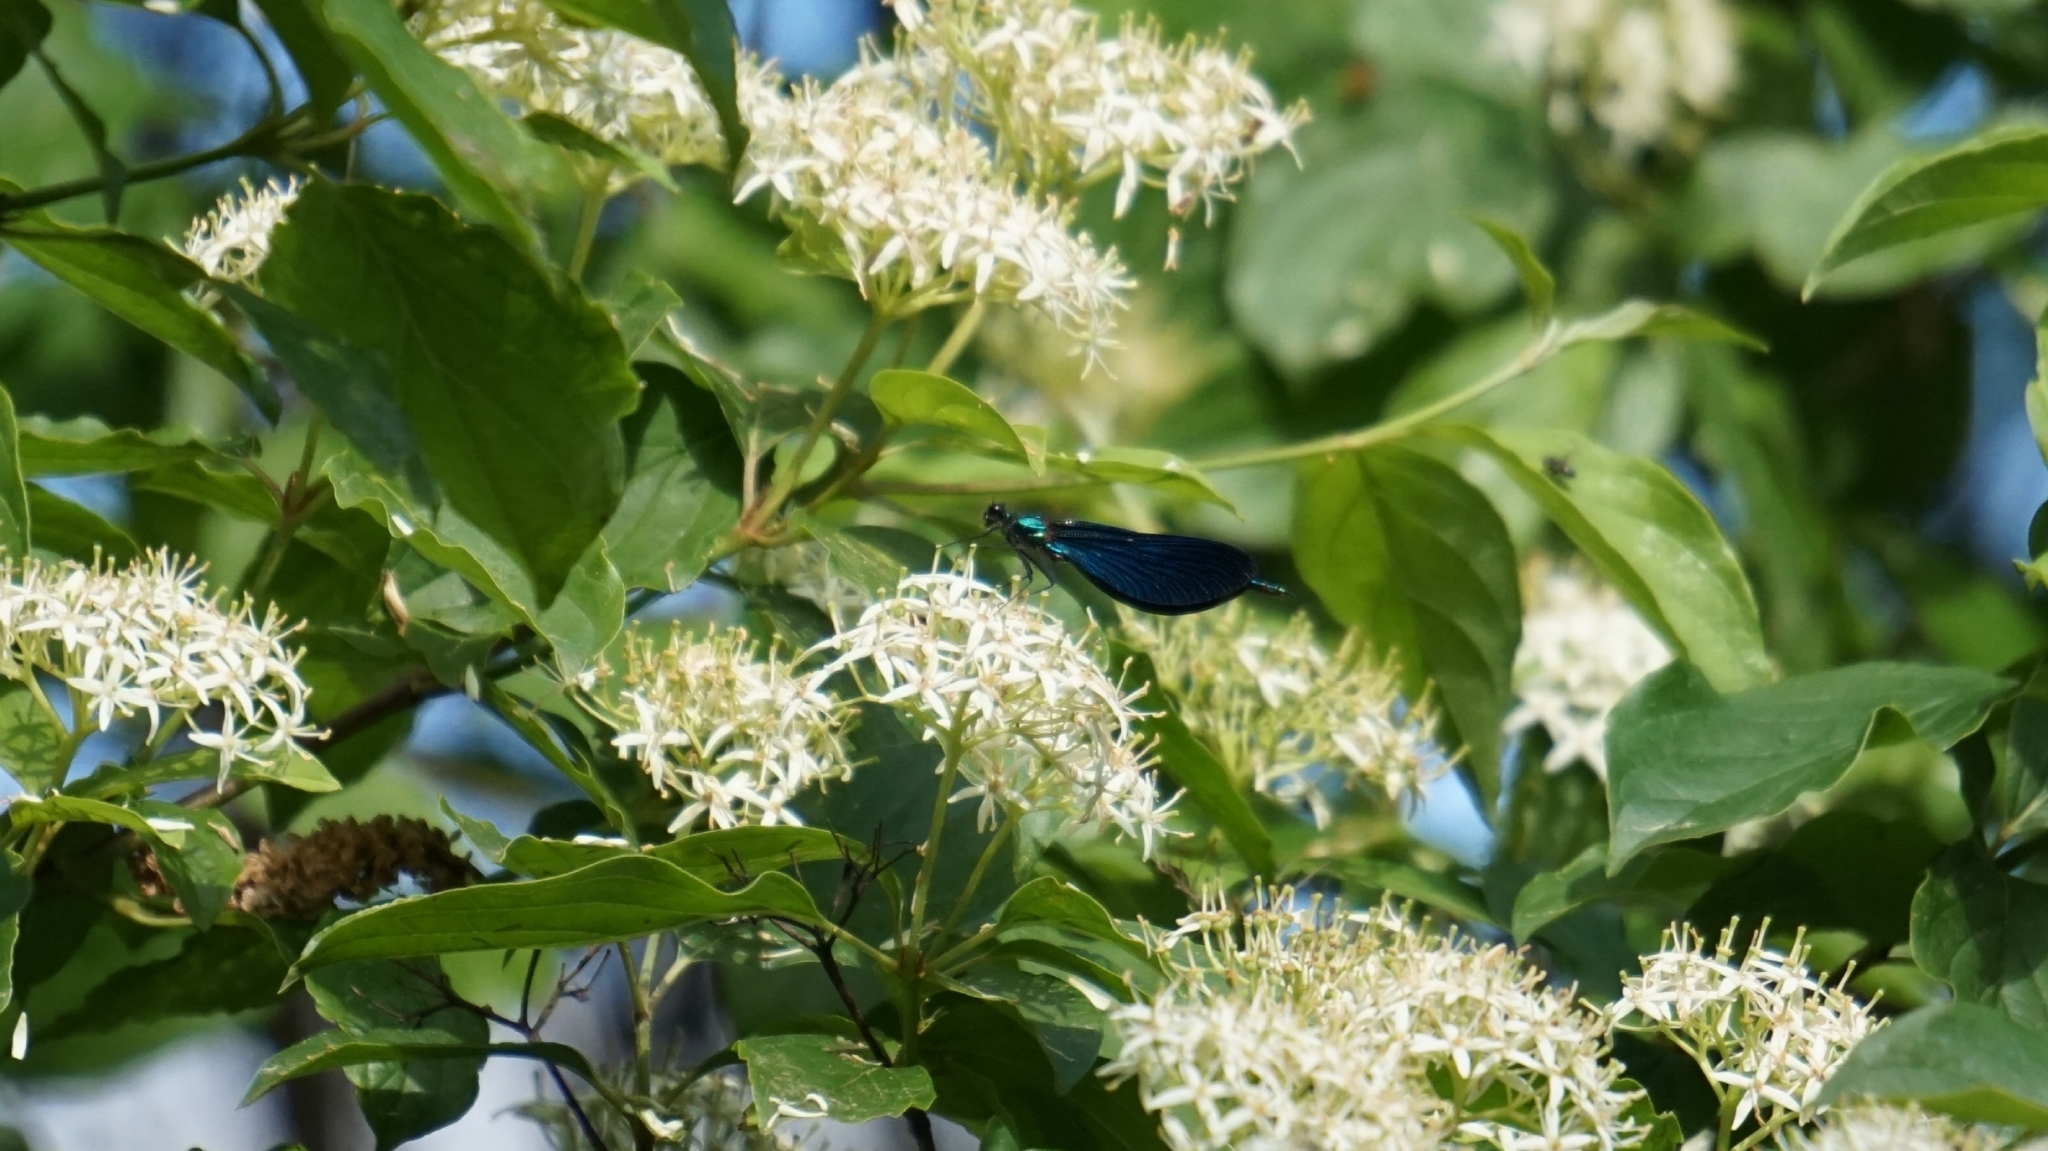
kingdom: Animalia
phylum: Arthropoda
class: Insecta
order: Odonata
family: Calopterygidae
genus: Calopteryx
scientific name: Calopteryx virgo
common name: Beautiful demoiselle
